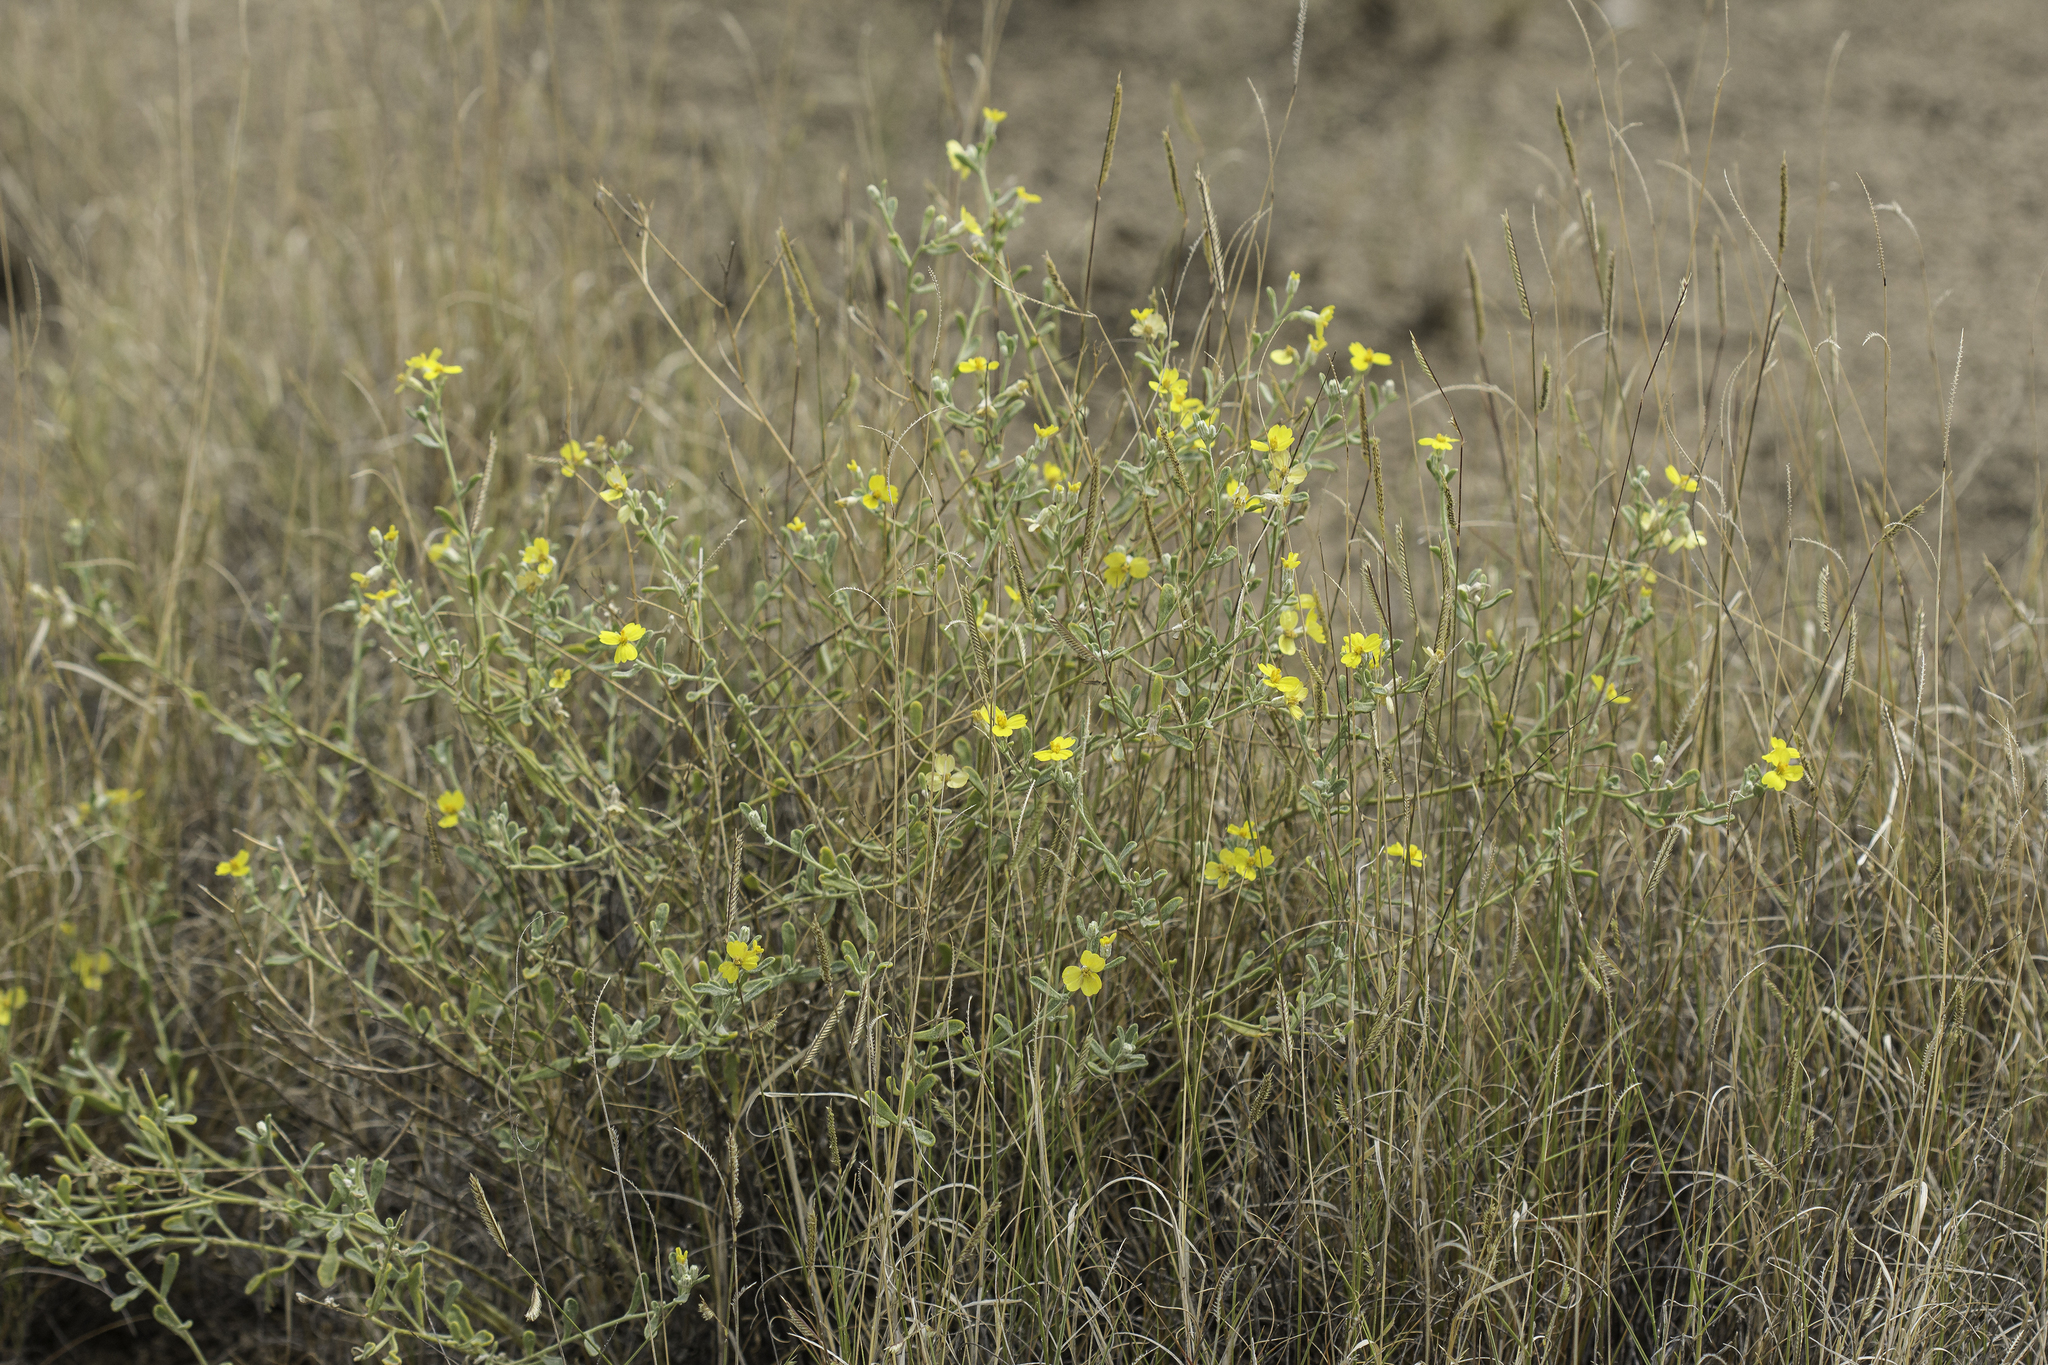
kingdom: Plantae
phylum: Tracheophyta
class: Magnoliopsida
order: Asterales
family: Asteraceae
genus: Psilostrophe
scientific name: Psilostrophe tagetina
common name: Marigold paper-flower
